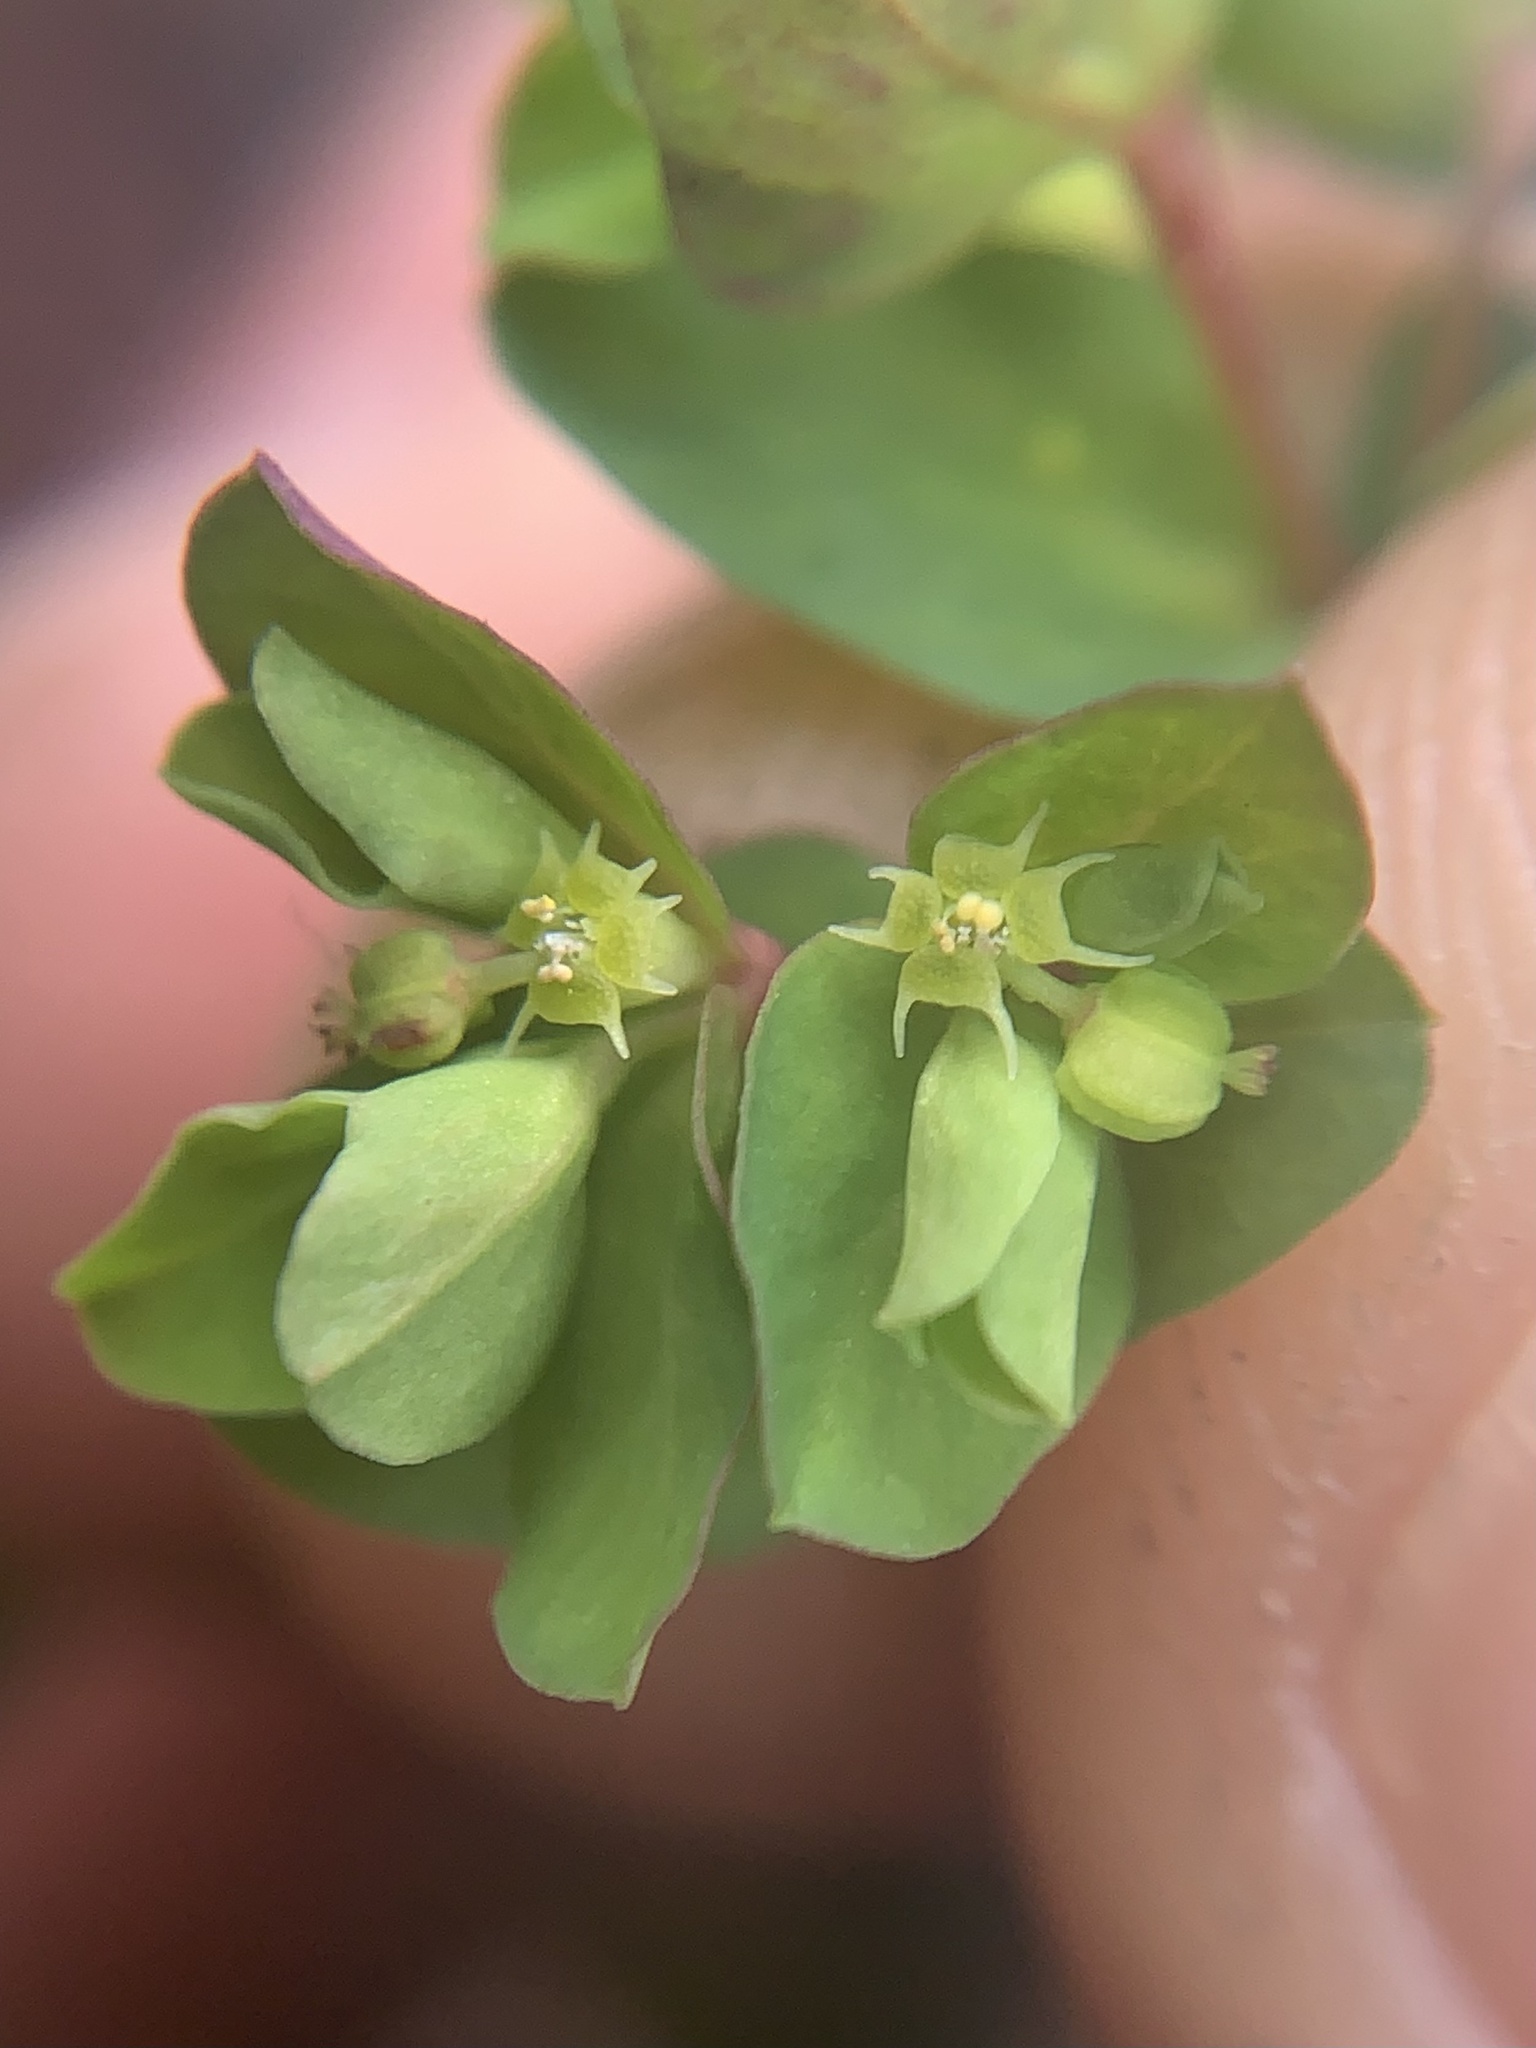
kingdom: Plantae
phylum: Tracheophyta
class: Magnoliopsida
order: Malpighiales
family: Euphorbiaceae
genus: Euphorbia
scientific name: Euphorbia peplus
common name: Petty spurge
